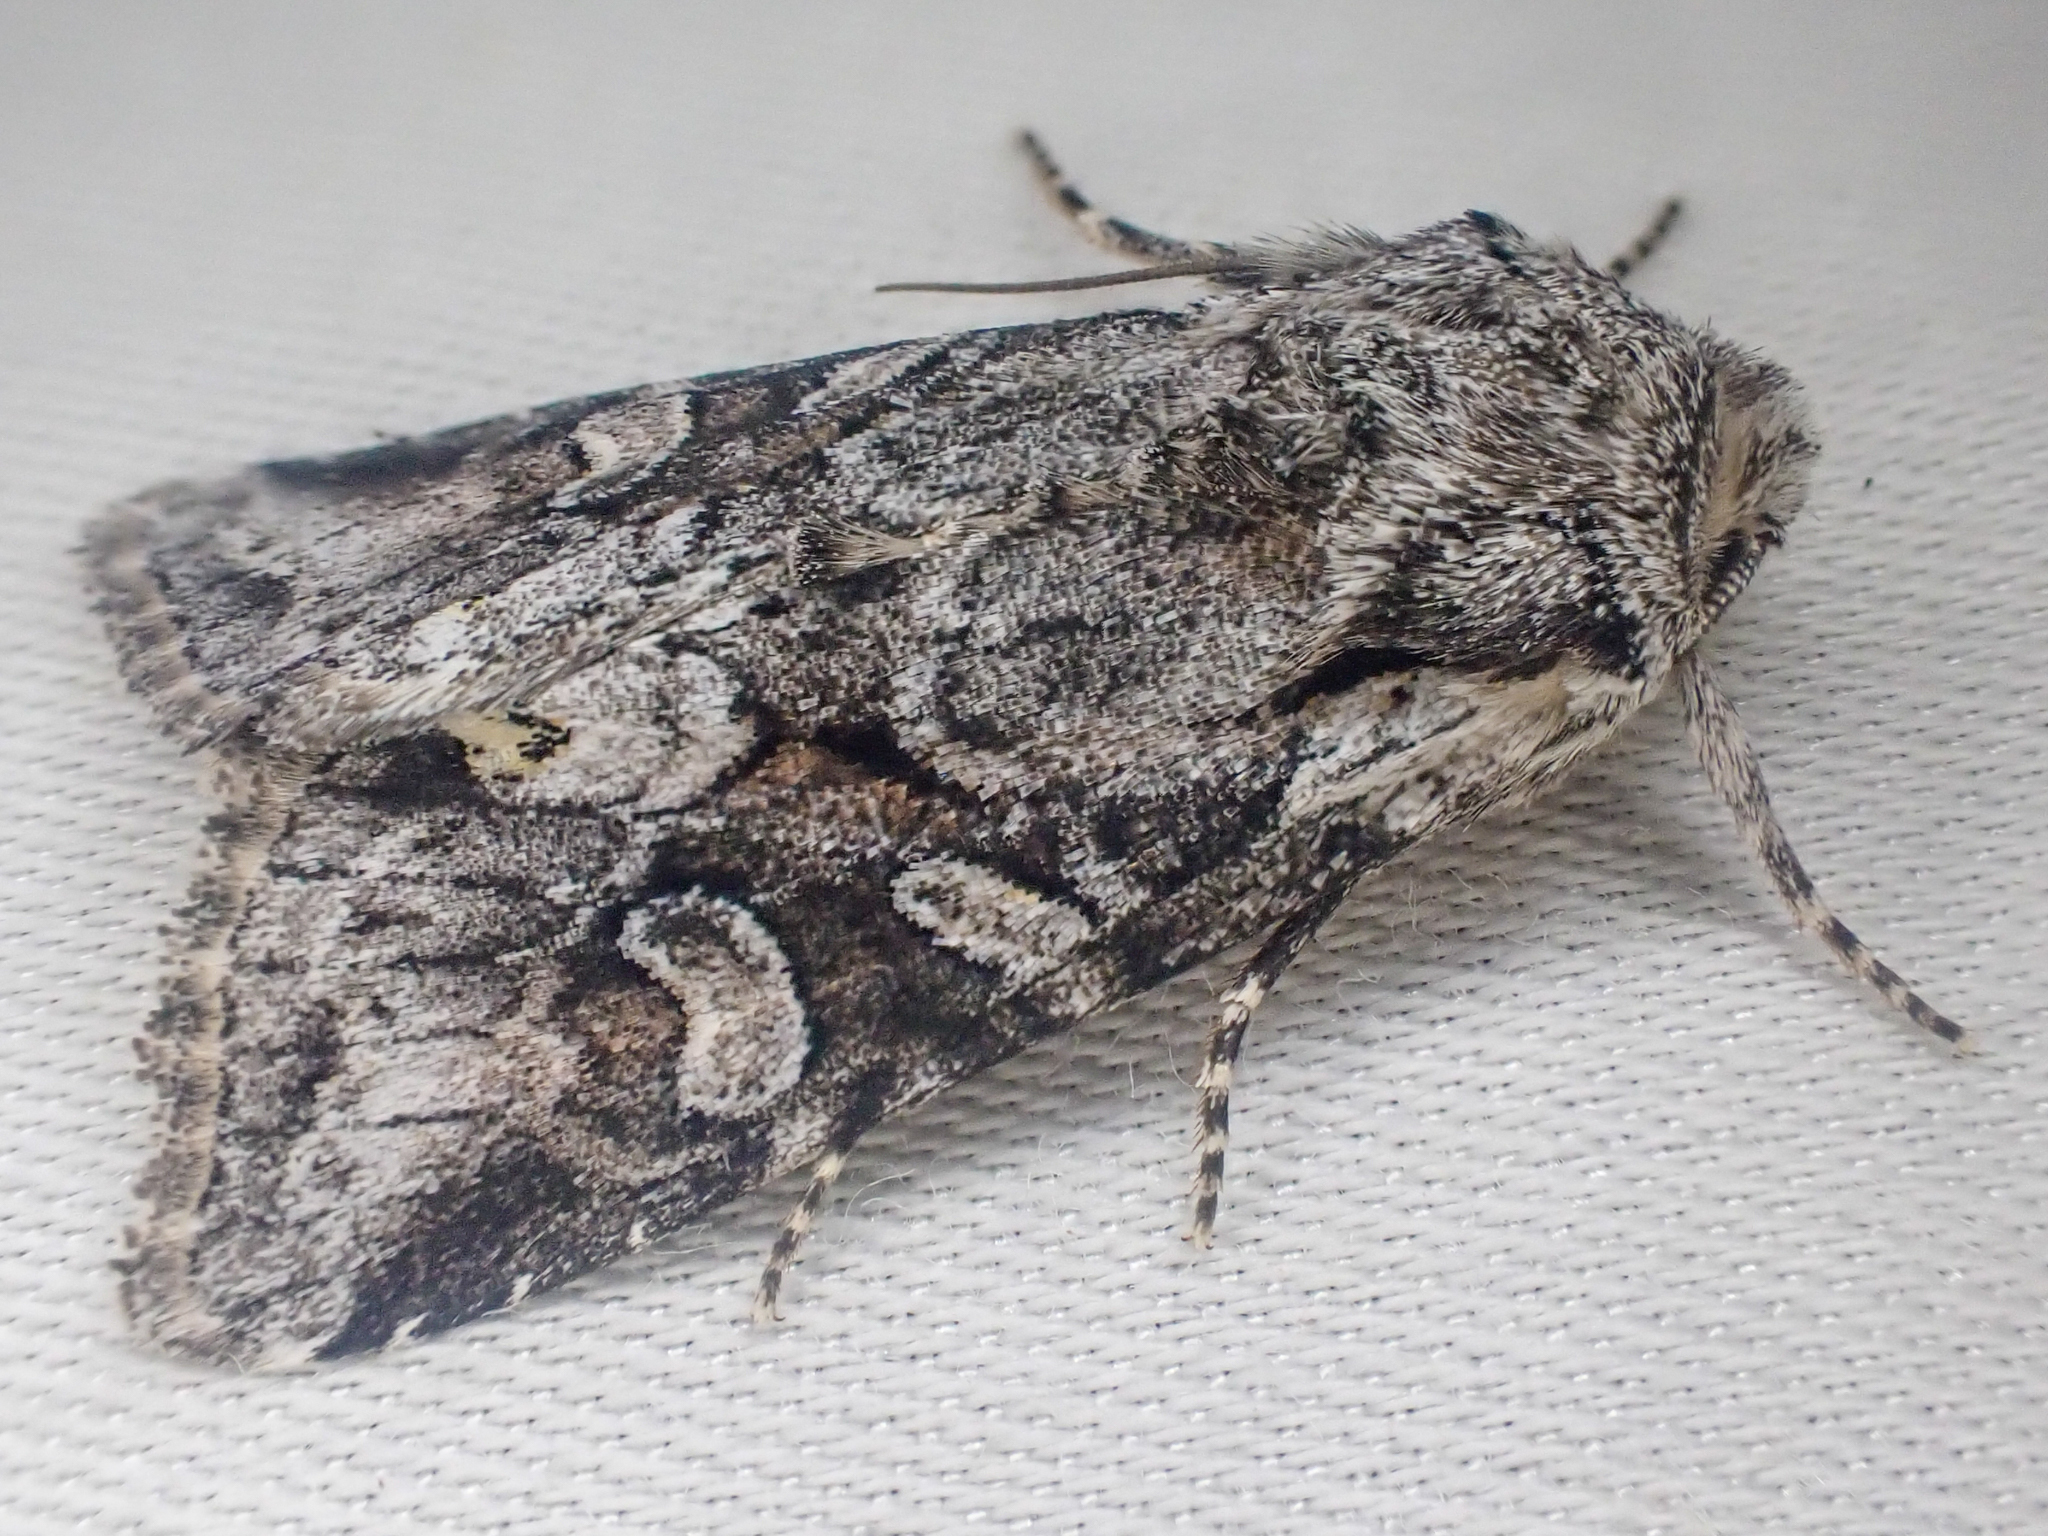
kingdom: Animalia
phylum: Arthropoda
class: Insecta
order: Lepidoptera
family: Noctuidae
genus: Lacinipolia
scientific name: Lacinipolia cuneata
